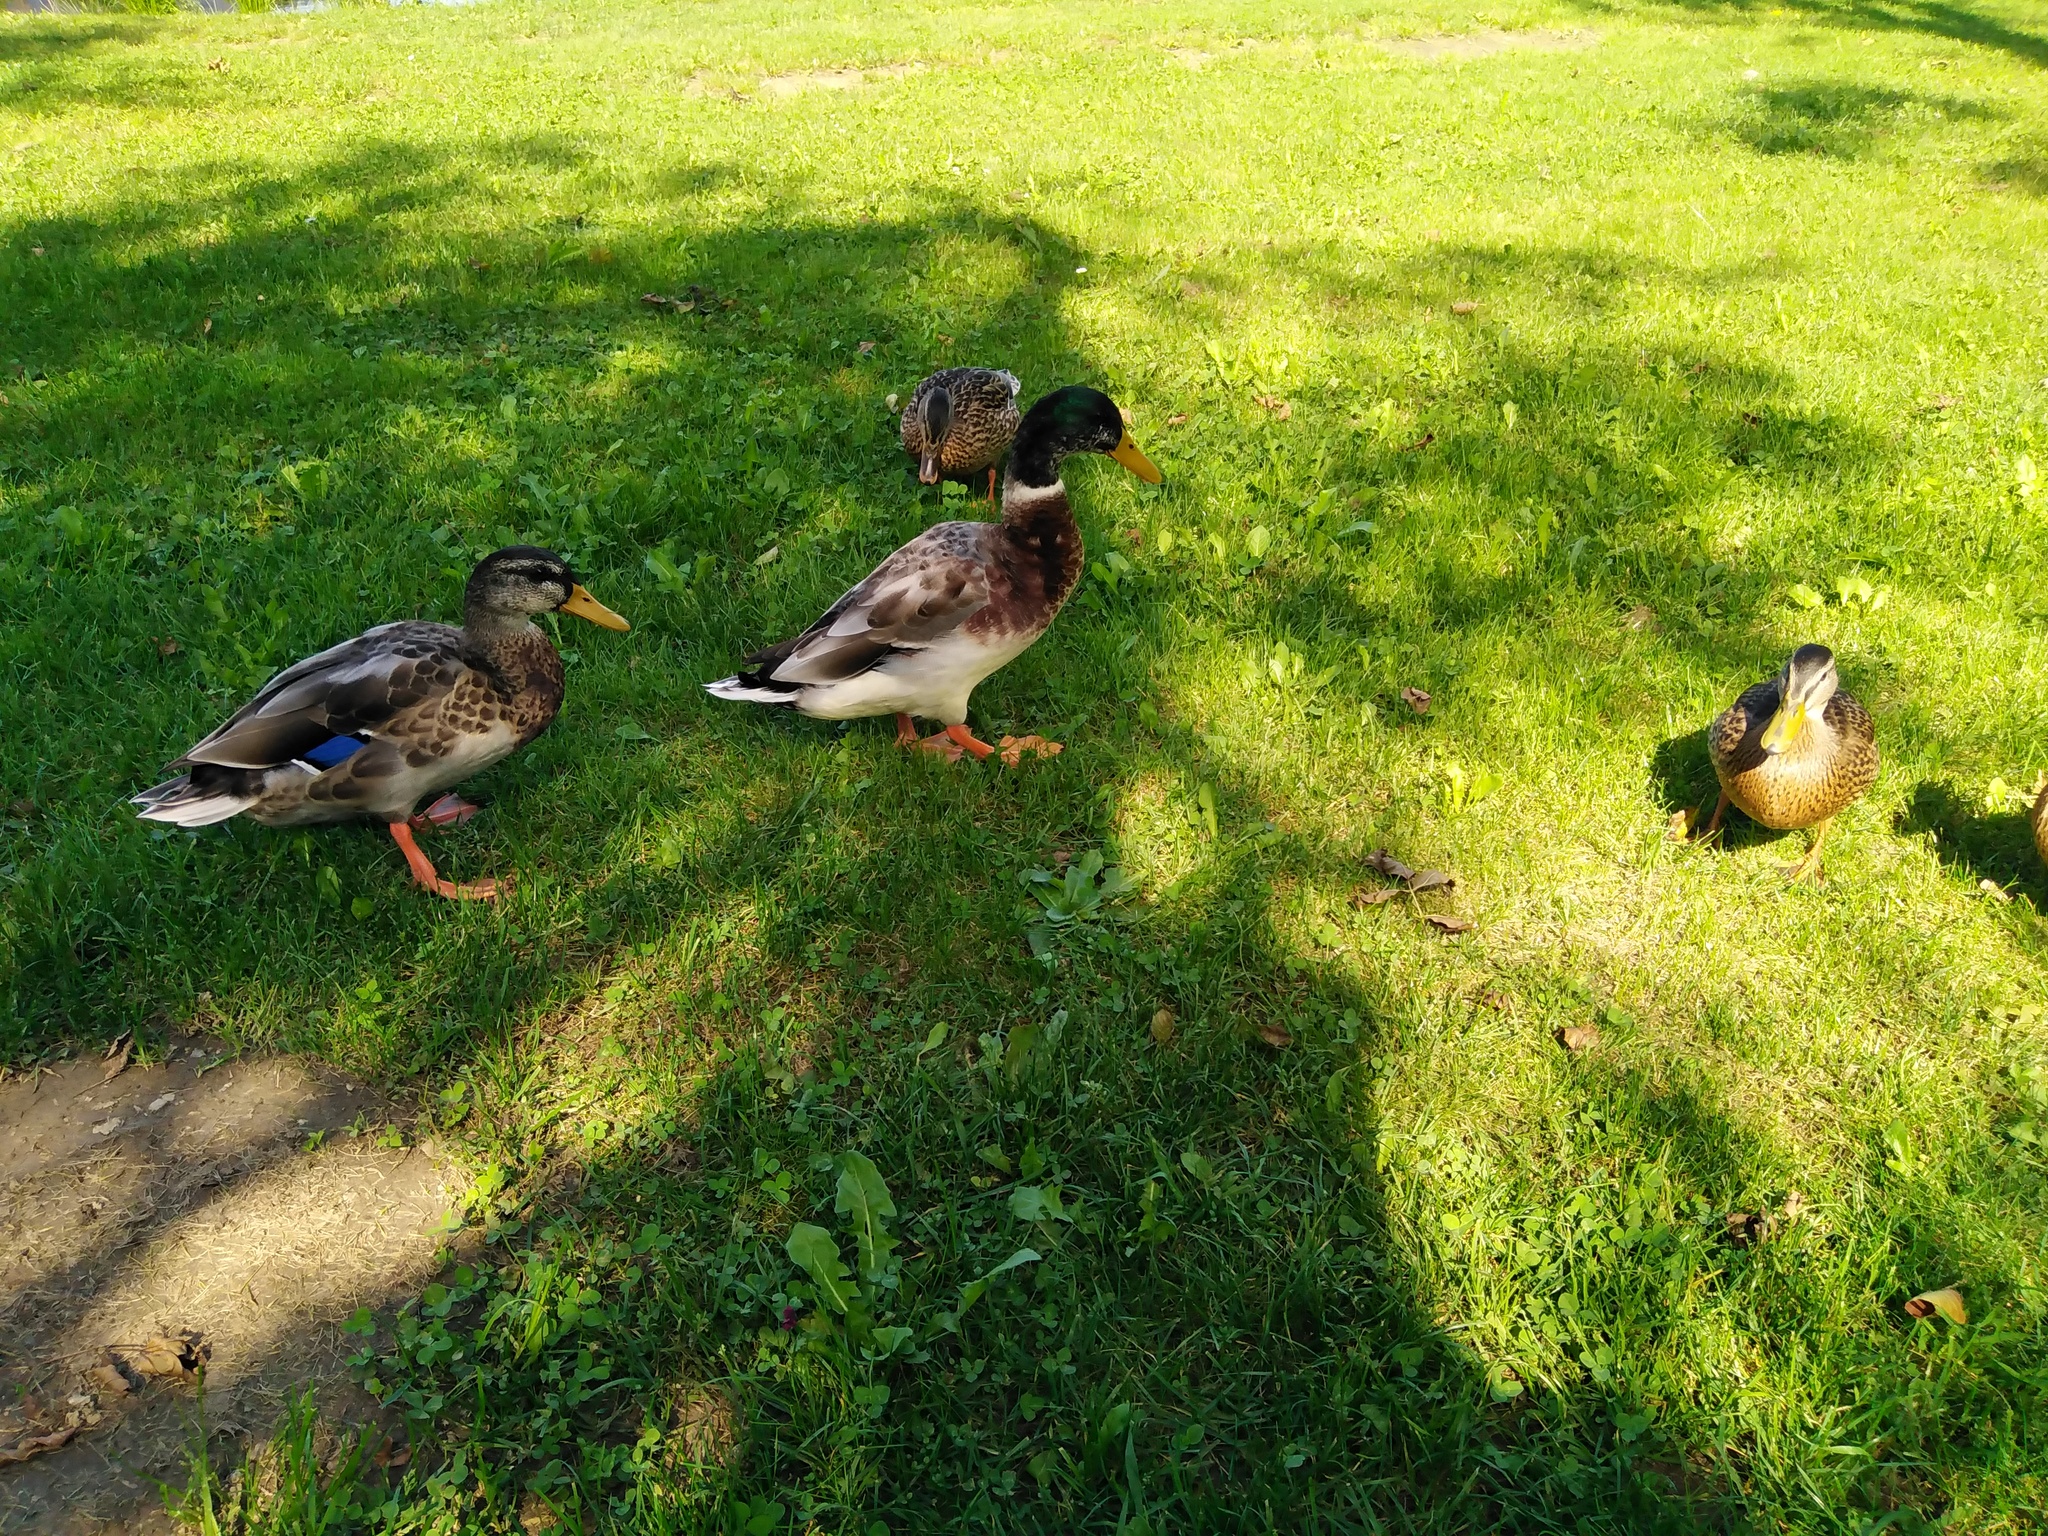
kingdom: Animalia
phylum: Chordata
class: Aves
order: Anseriformes
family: Anatidae
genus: Anas
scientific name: Anas platyrhynchos
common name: Mallard
